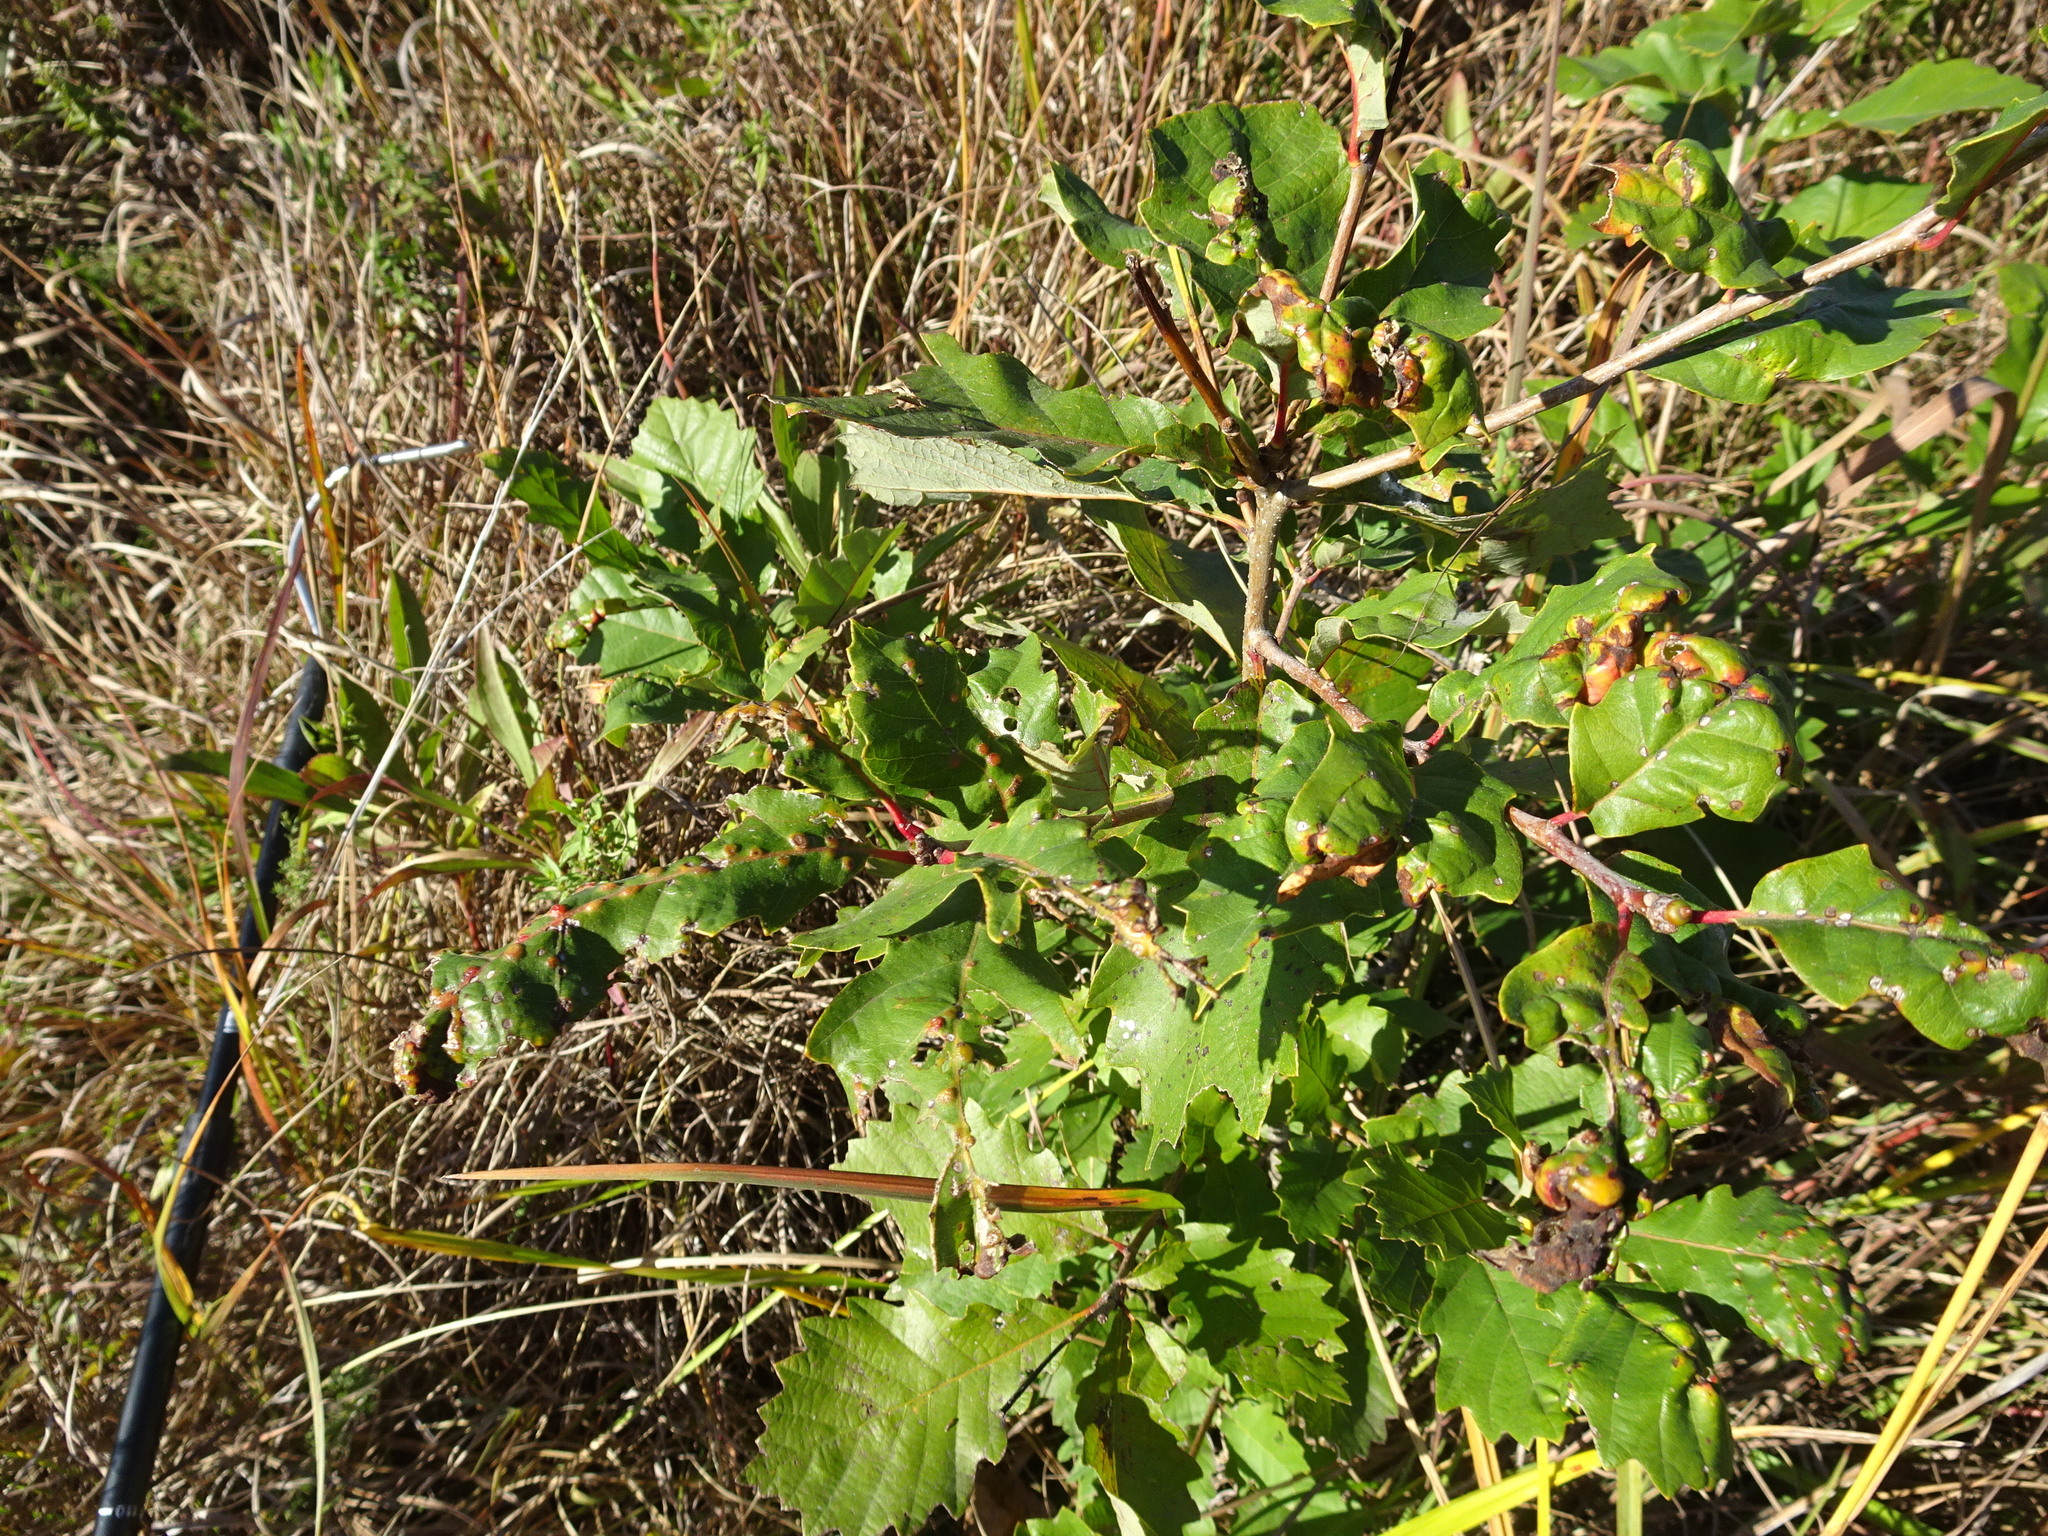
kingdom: Animalia
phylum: Arthropoda
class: Insecta
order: Hymenoptera
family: Cynipidae
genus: Neuroterus
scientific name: Neuroterus quercusverrucarum
